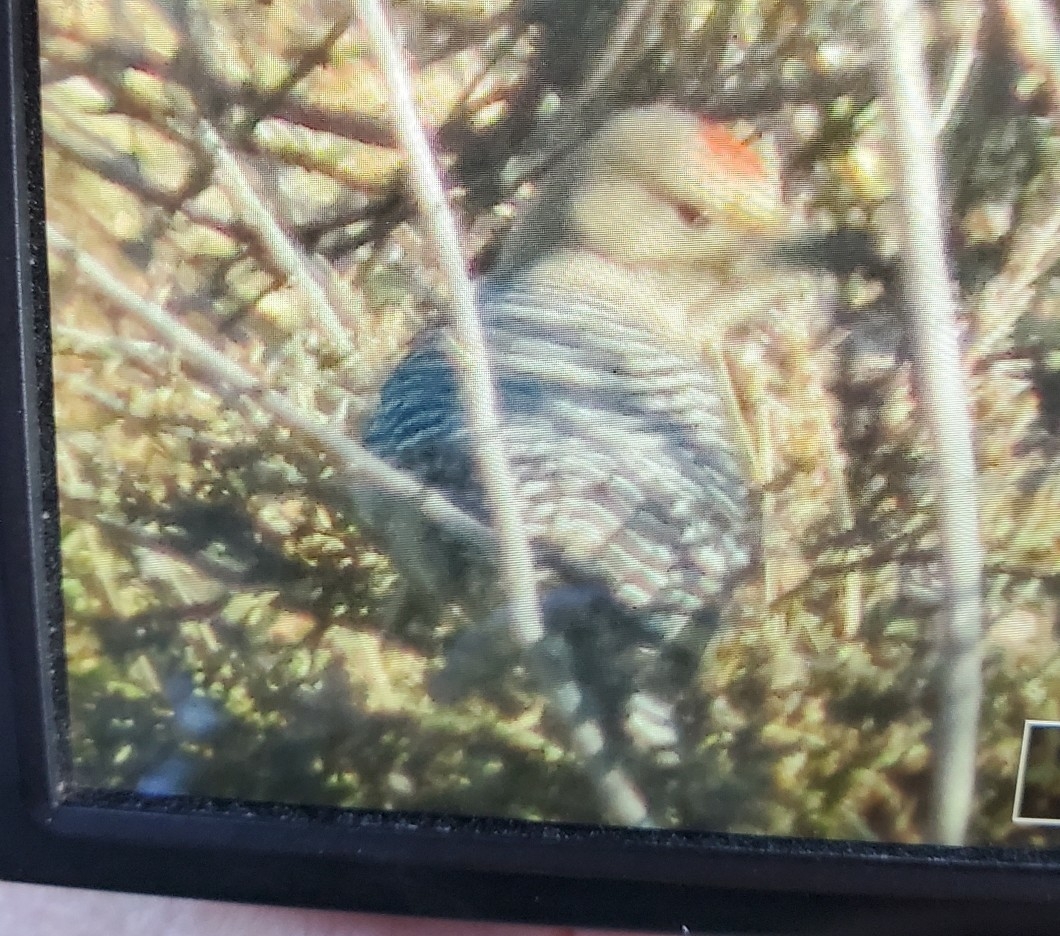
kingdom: Animalia
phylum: Chordata
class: Aves
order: Piciformes
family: Picidae
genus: Melanerpes
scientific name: Melanerpes uropygialis
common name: Gila woodpecker
